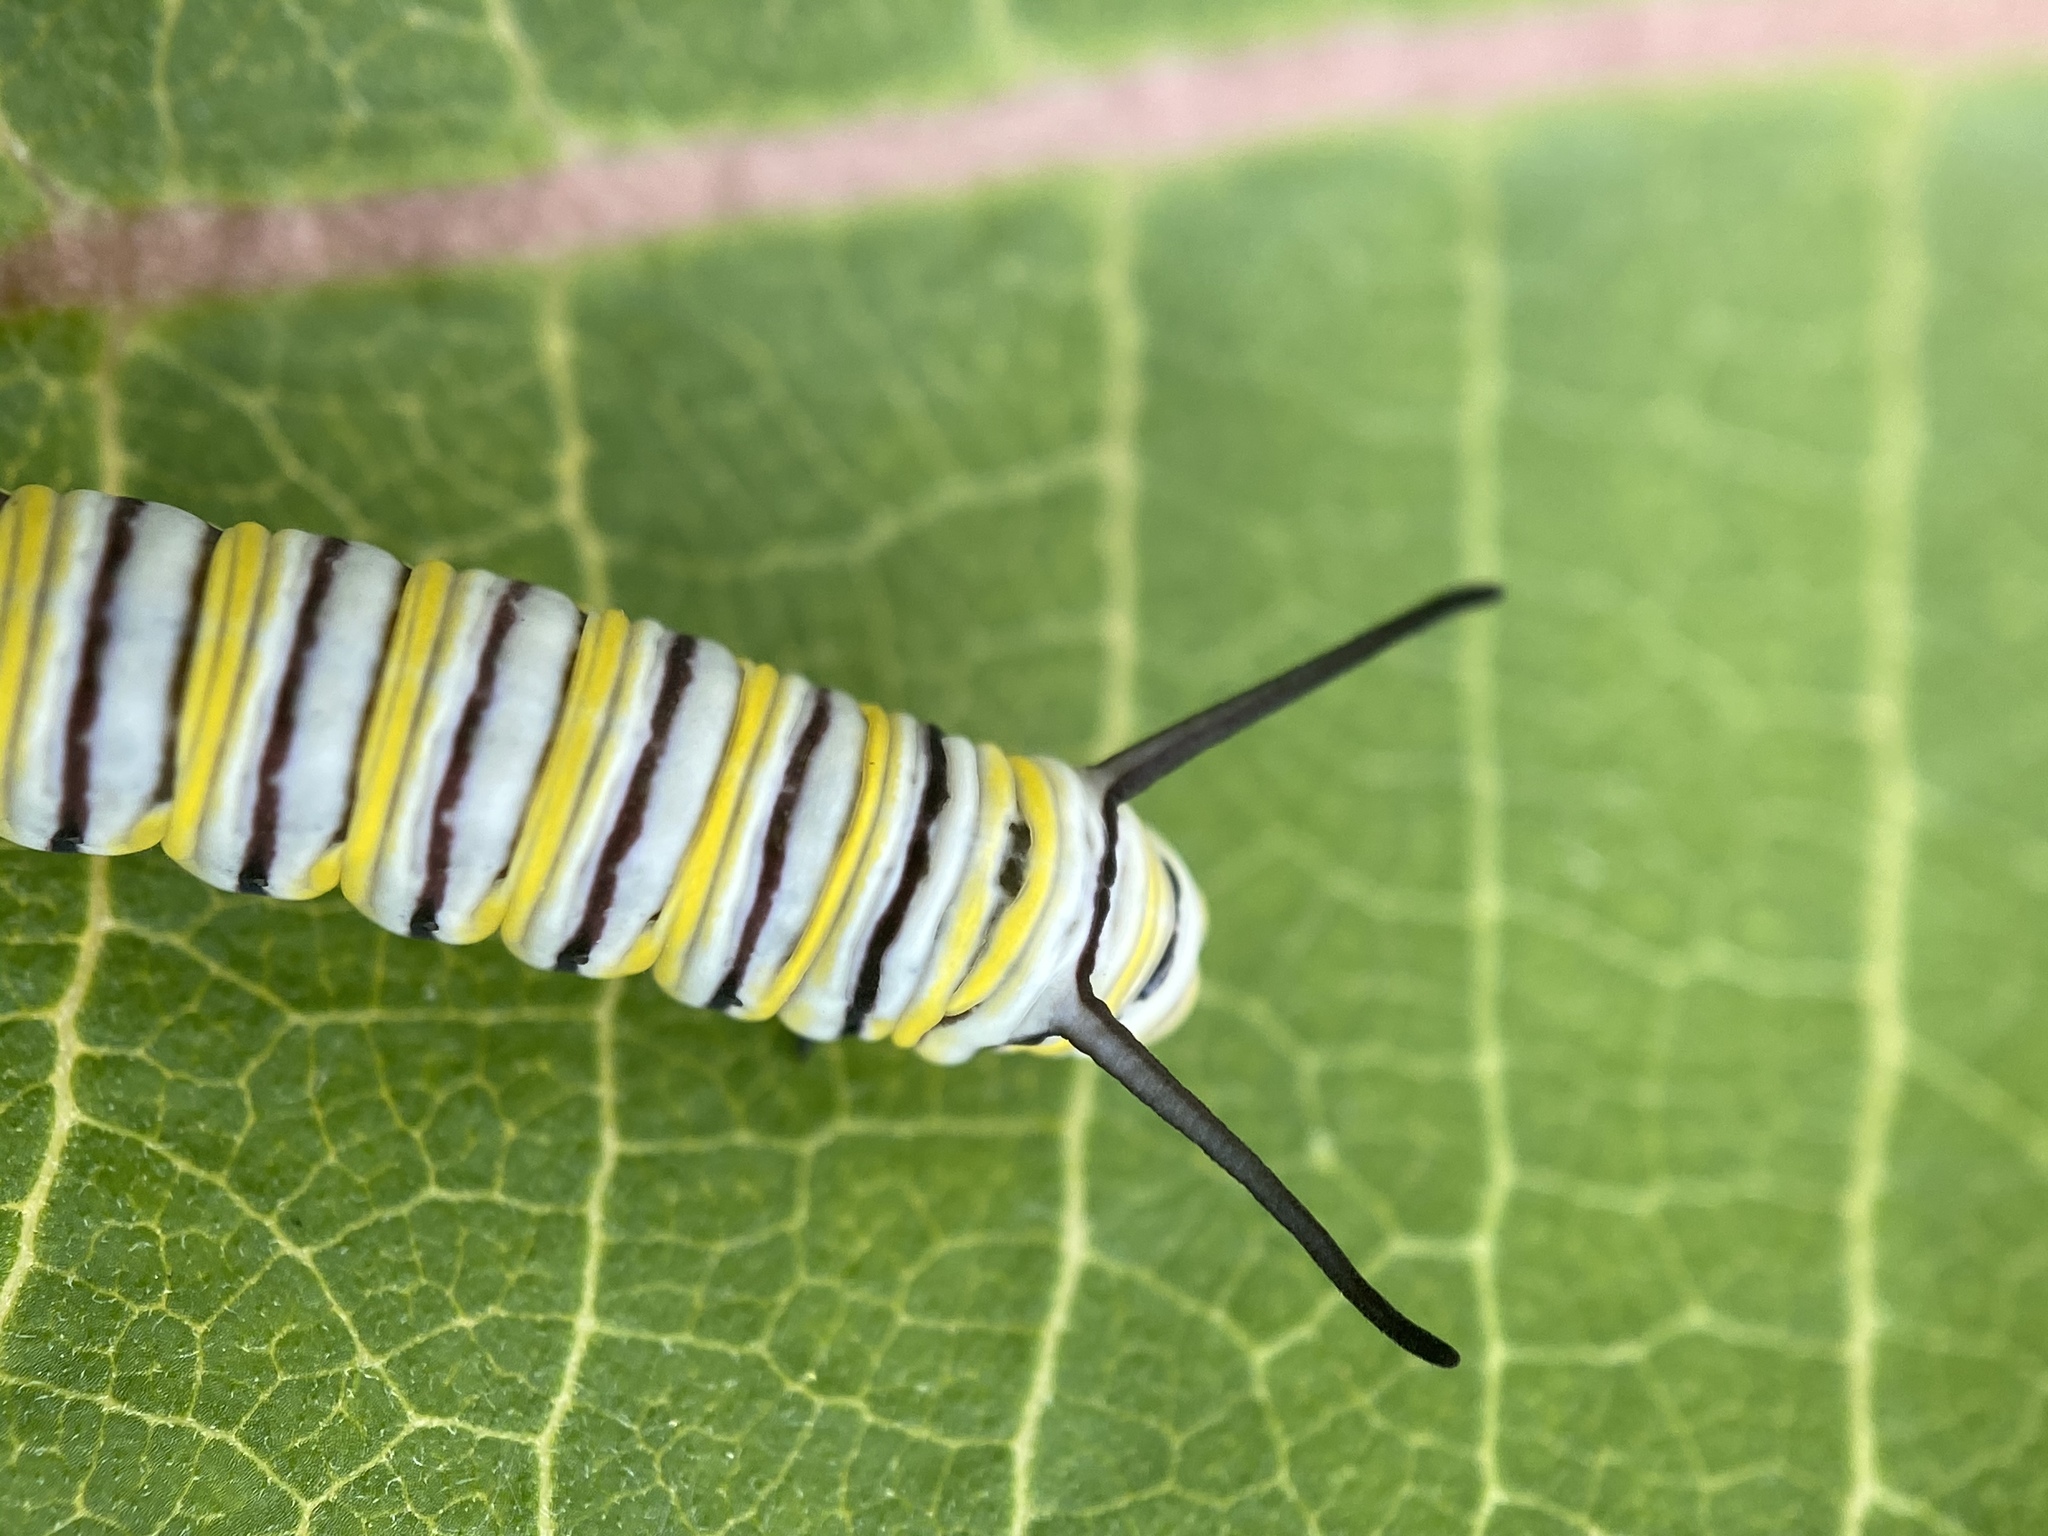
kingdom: Animalia
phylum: Arthropoda
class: Insecta
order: Lepidoptera
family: Nymphalidae
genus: Danaus
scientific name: Danaus plexippus
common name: Monarch
